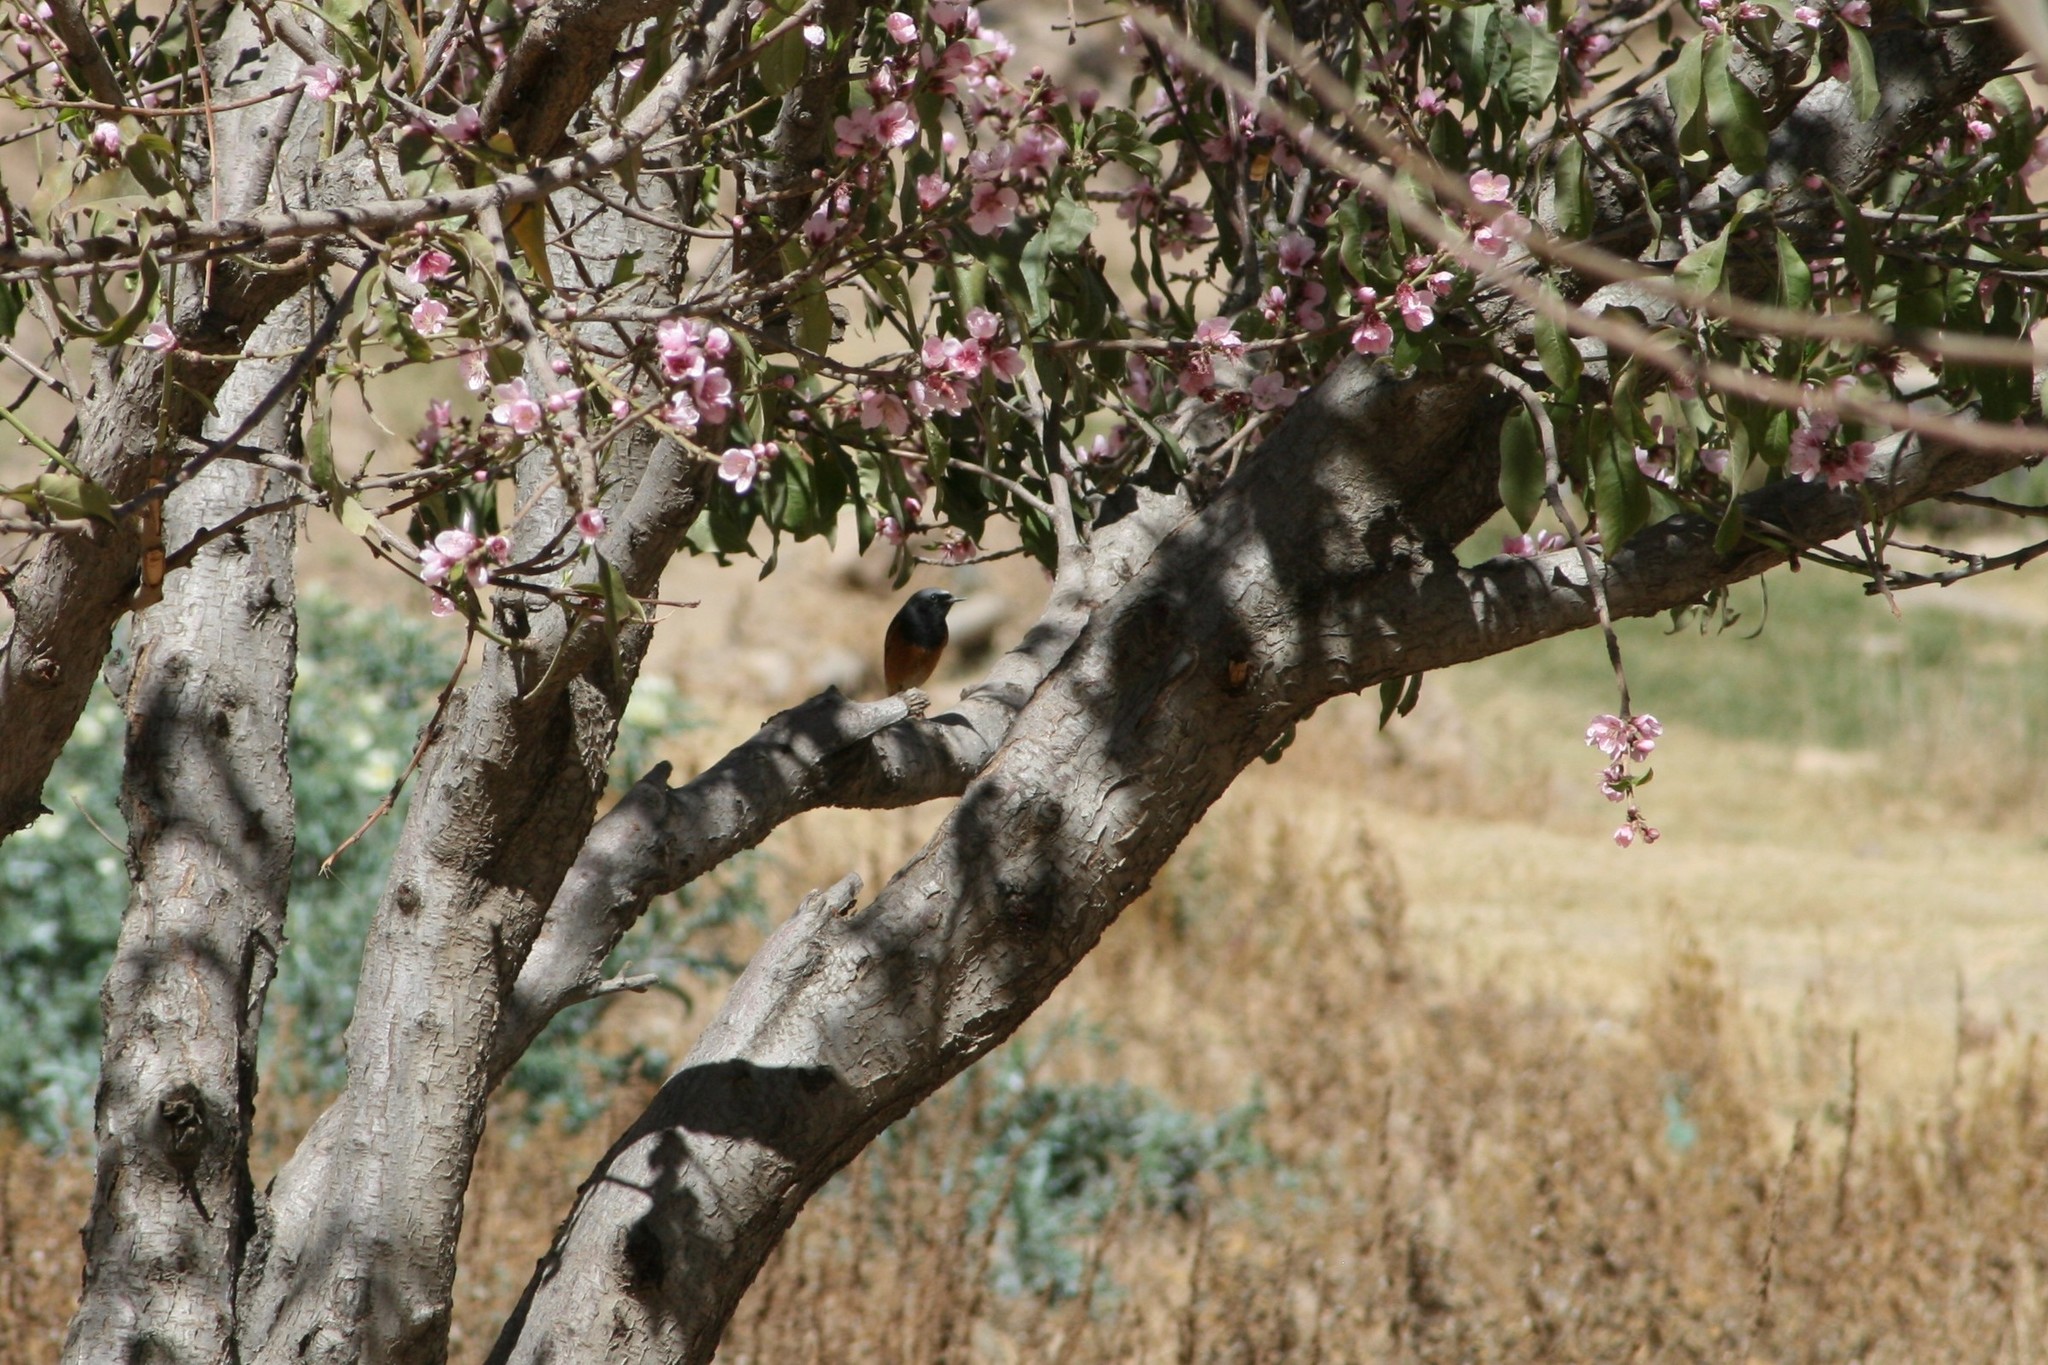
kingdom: Animalia
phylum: Chordata
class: Aves
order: Passeriformes
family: Muscicapidae
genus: Phoenicurus
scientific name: Phoenicurus ochruros
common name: Black redstart
